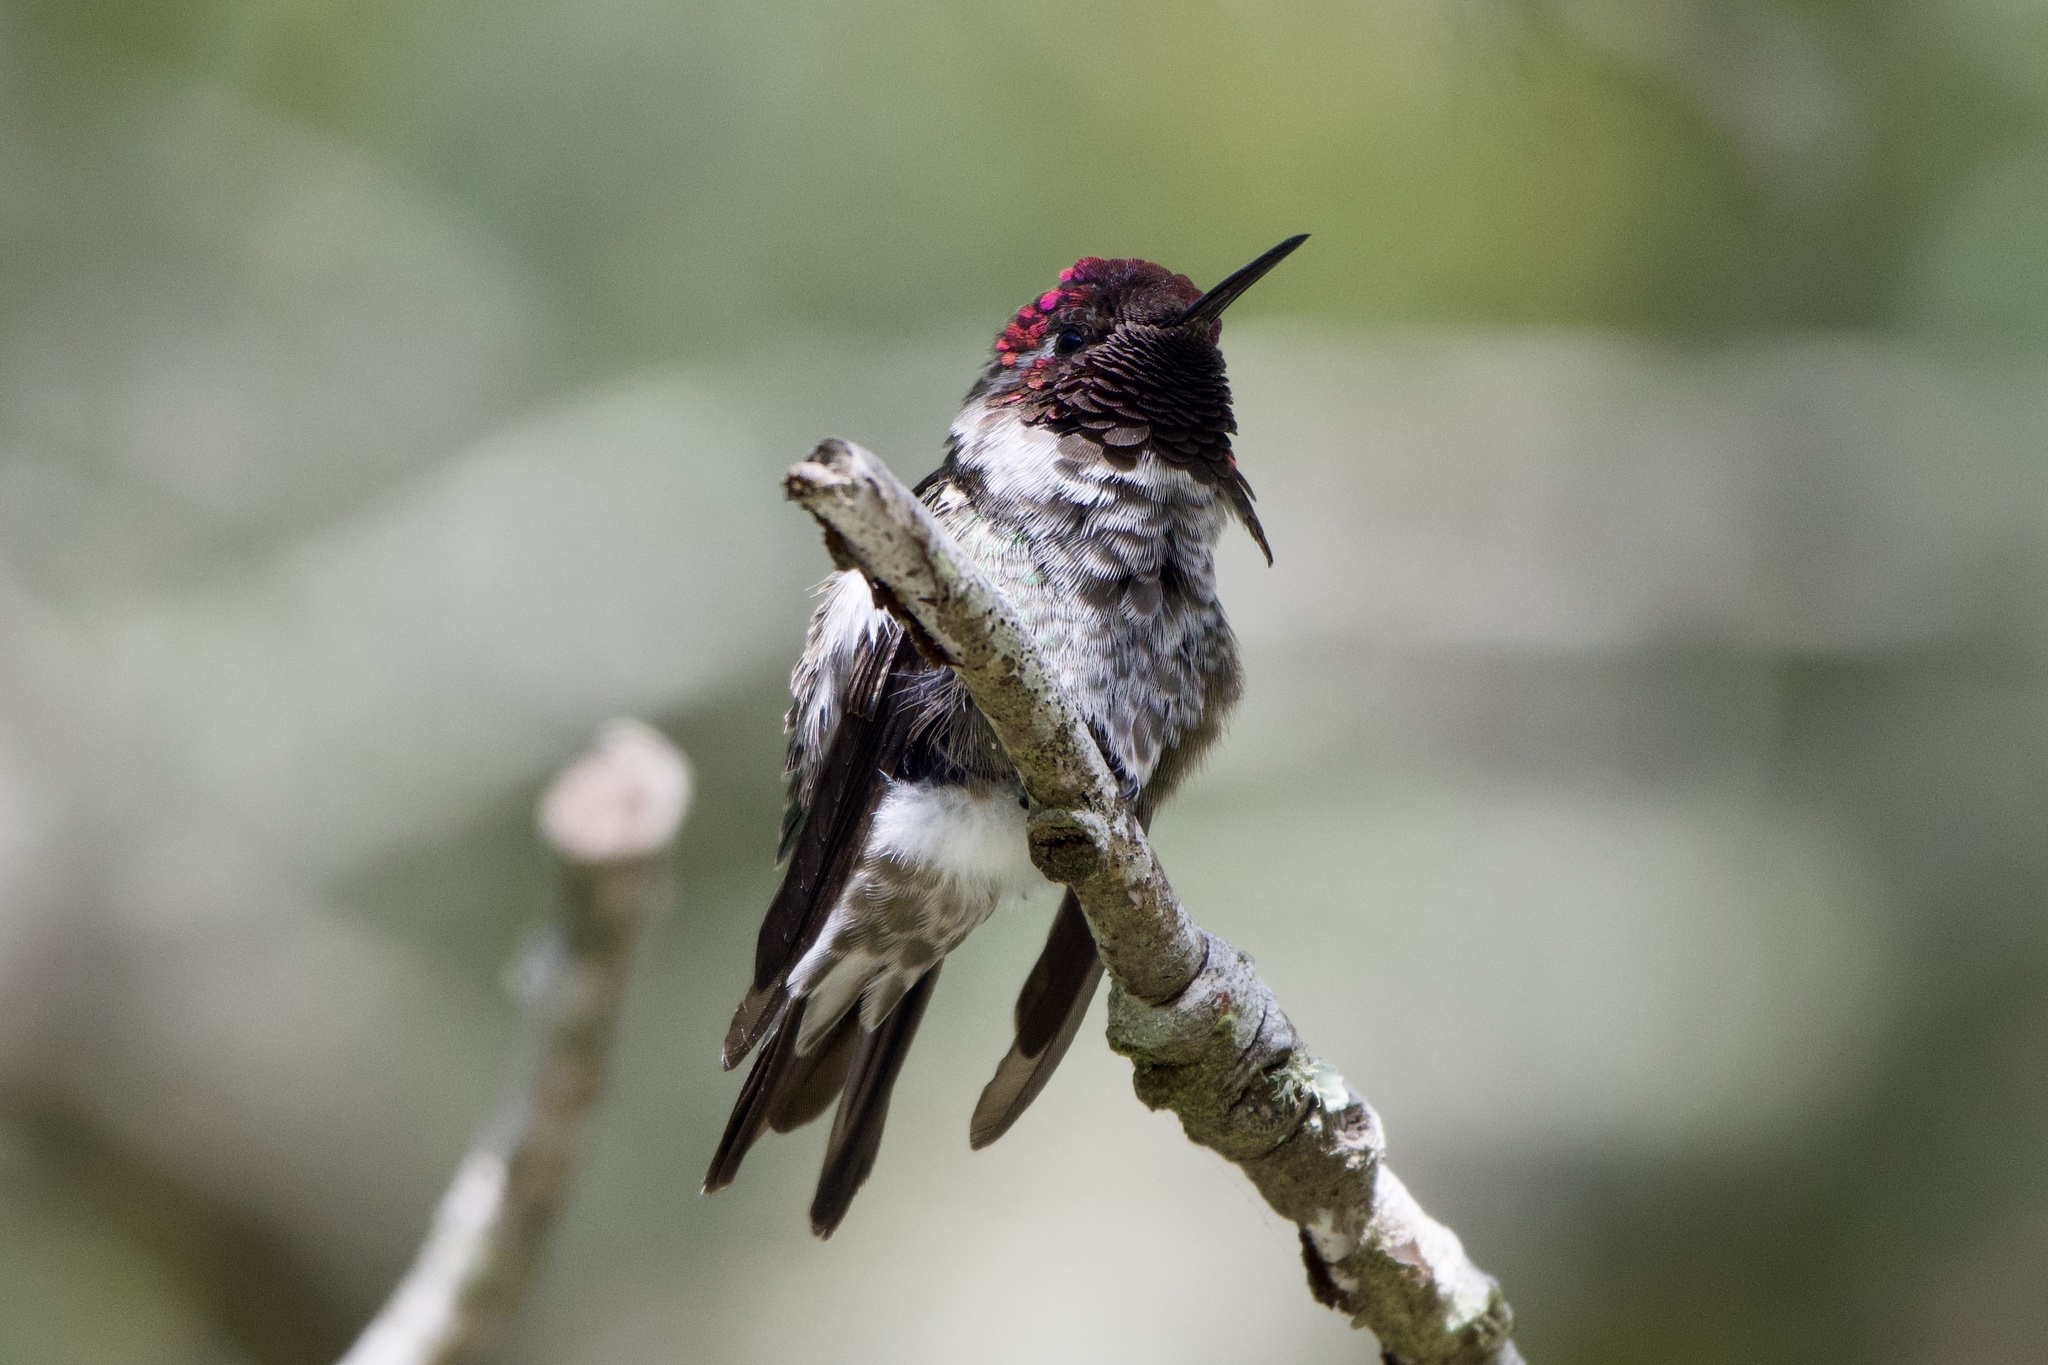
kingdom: Animalia
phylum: Chordata
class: Aves
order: Apodiformes
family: Trochilidae
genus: Calypte
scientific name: Calypte anna
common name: Anna's hummingbird
